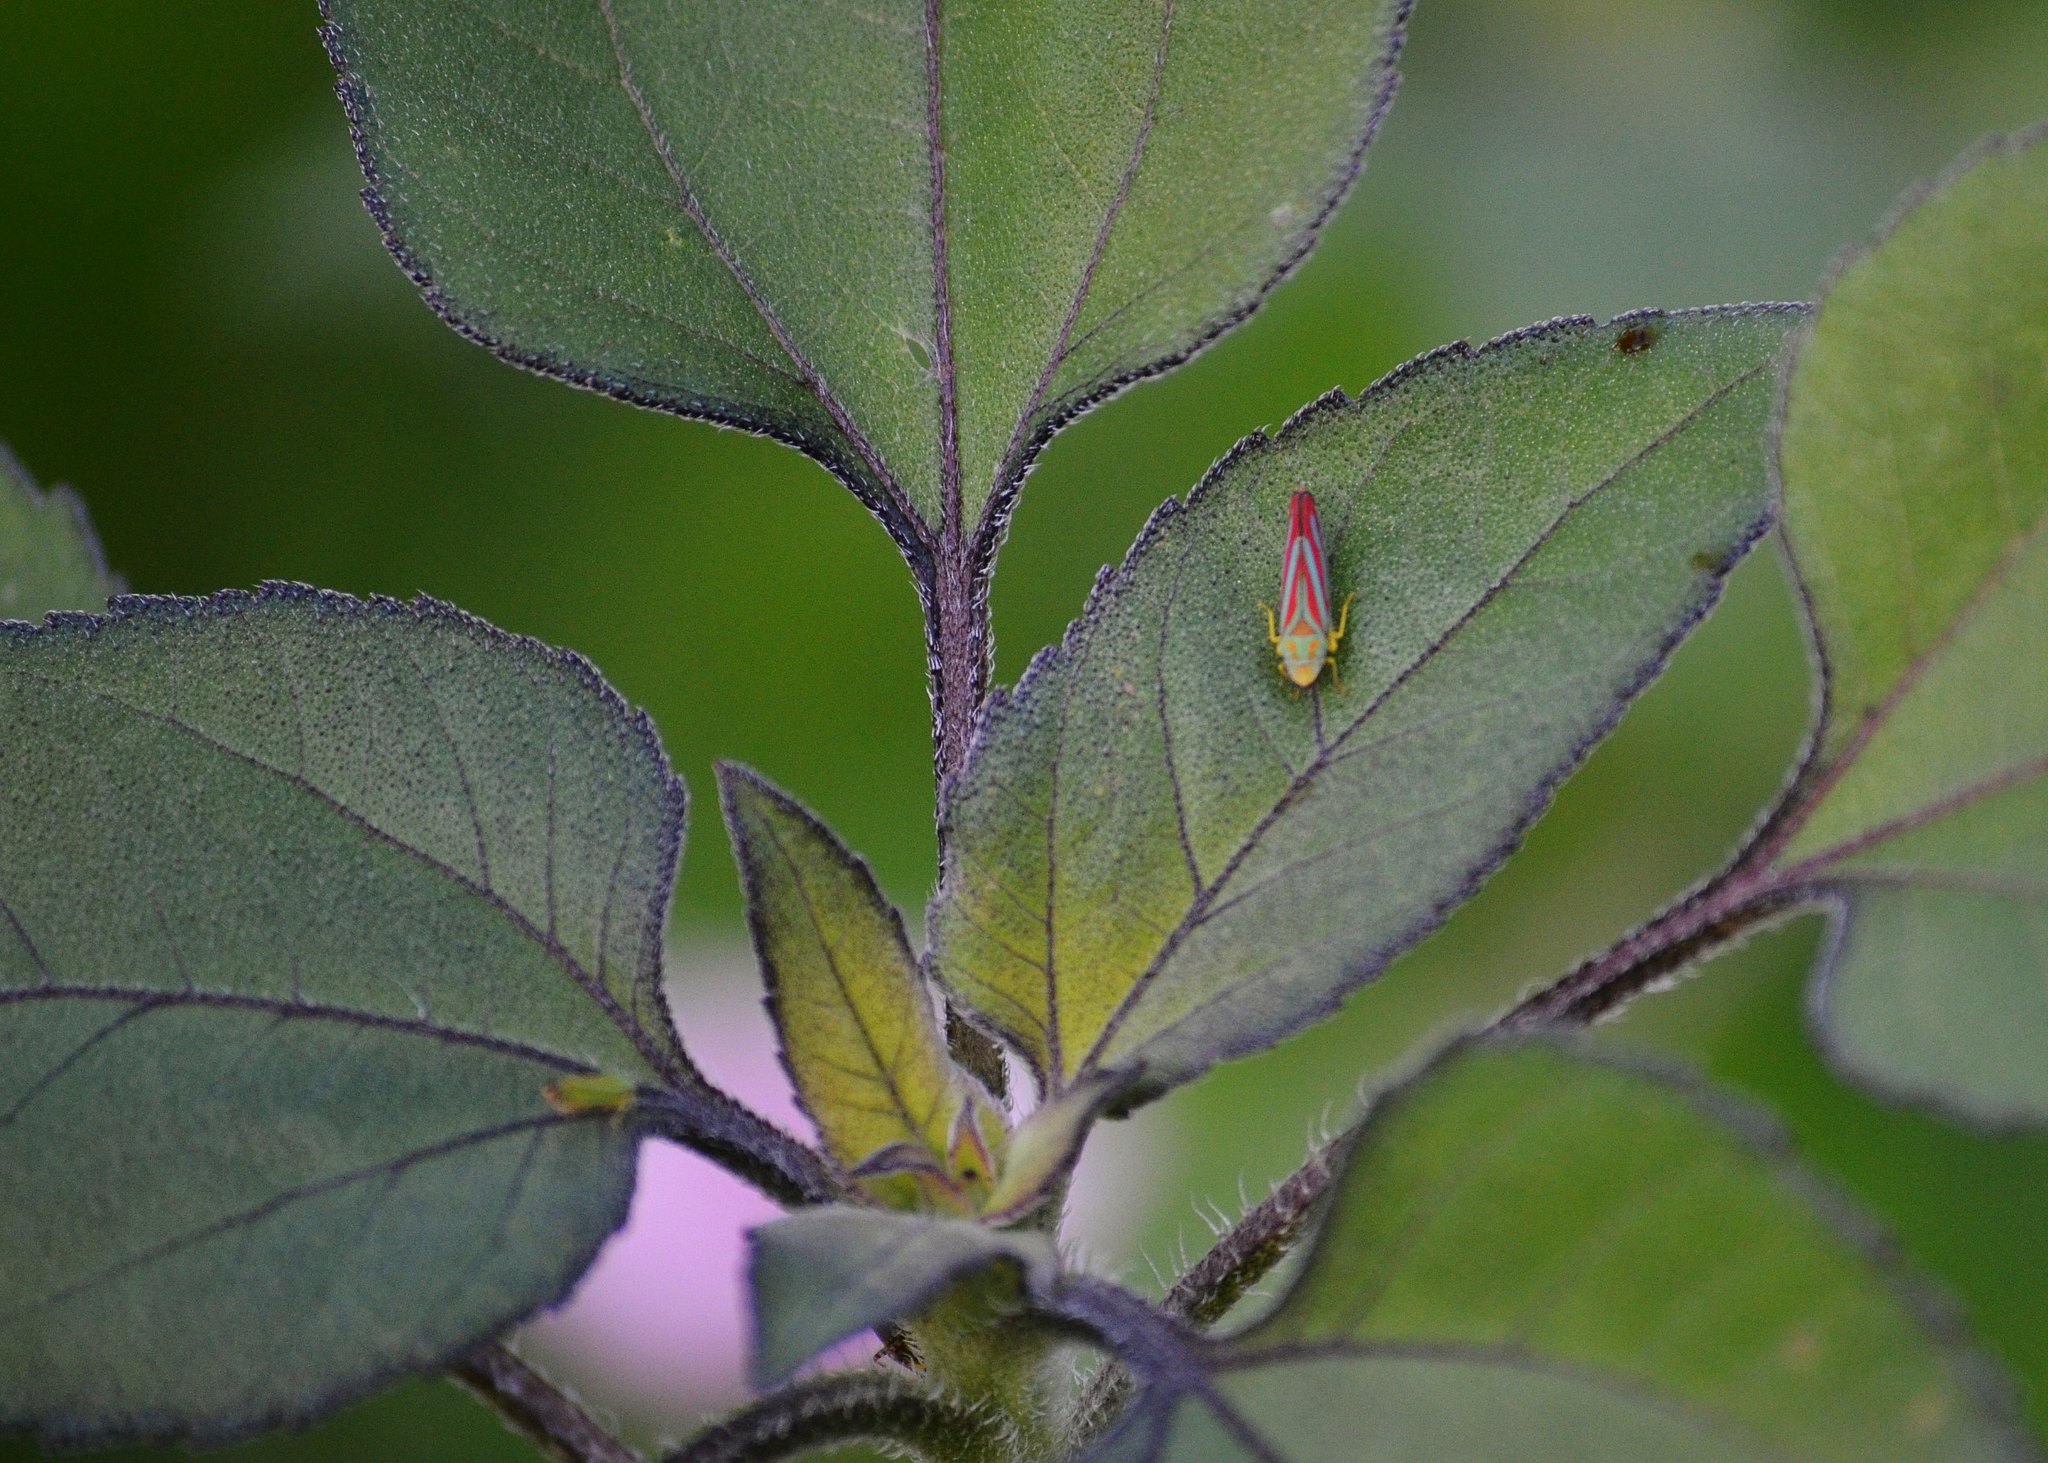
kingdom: Animalia
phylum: Arthropoda
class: Insecta
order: Hemiptera
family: Cicadellidae
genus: Graphocephala
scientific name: Graphocephala coccinea
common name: Candy-striped leafhopper
